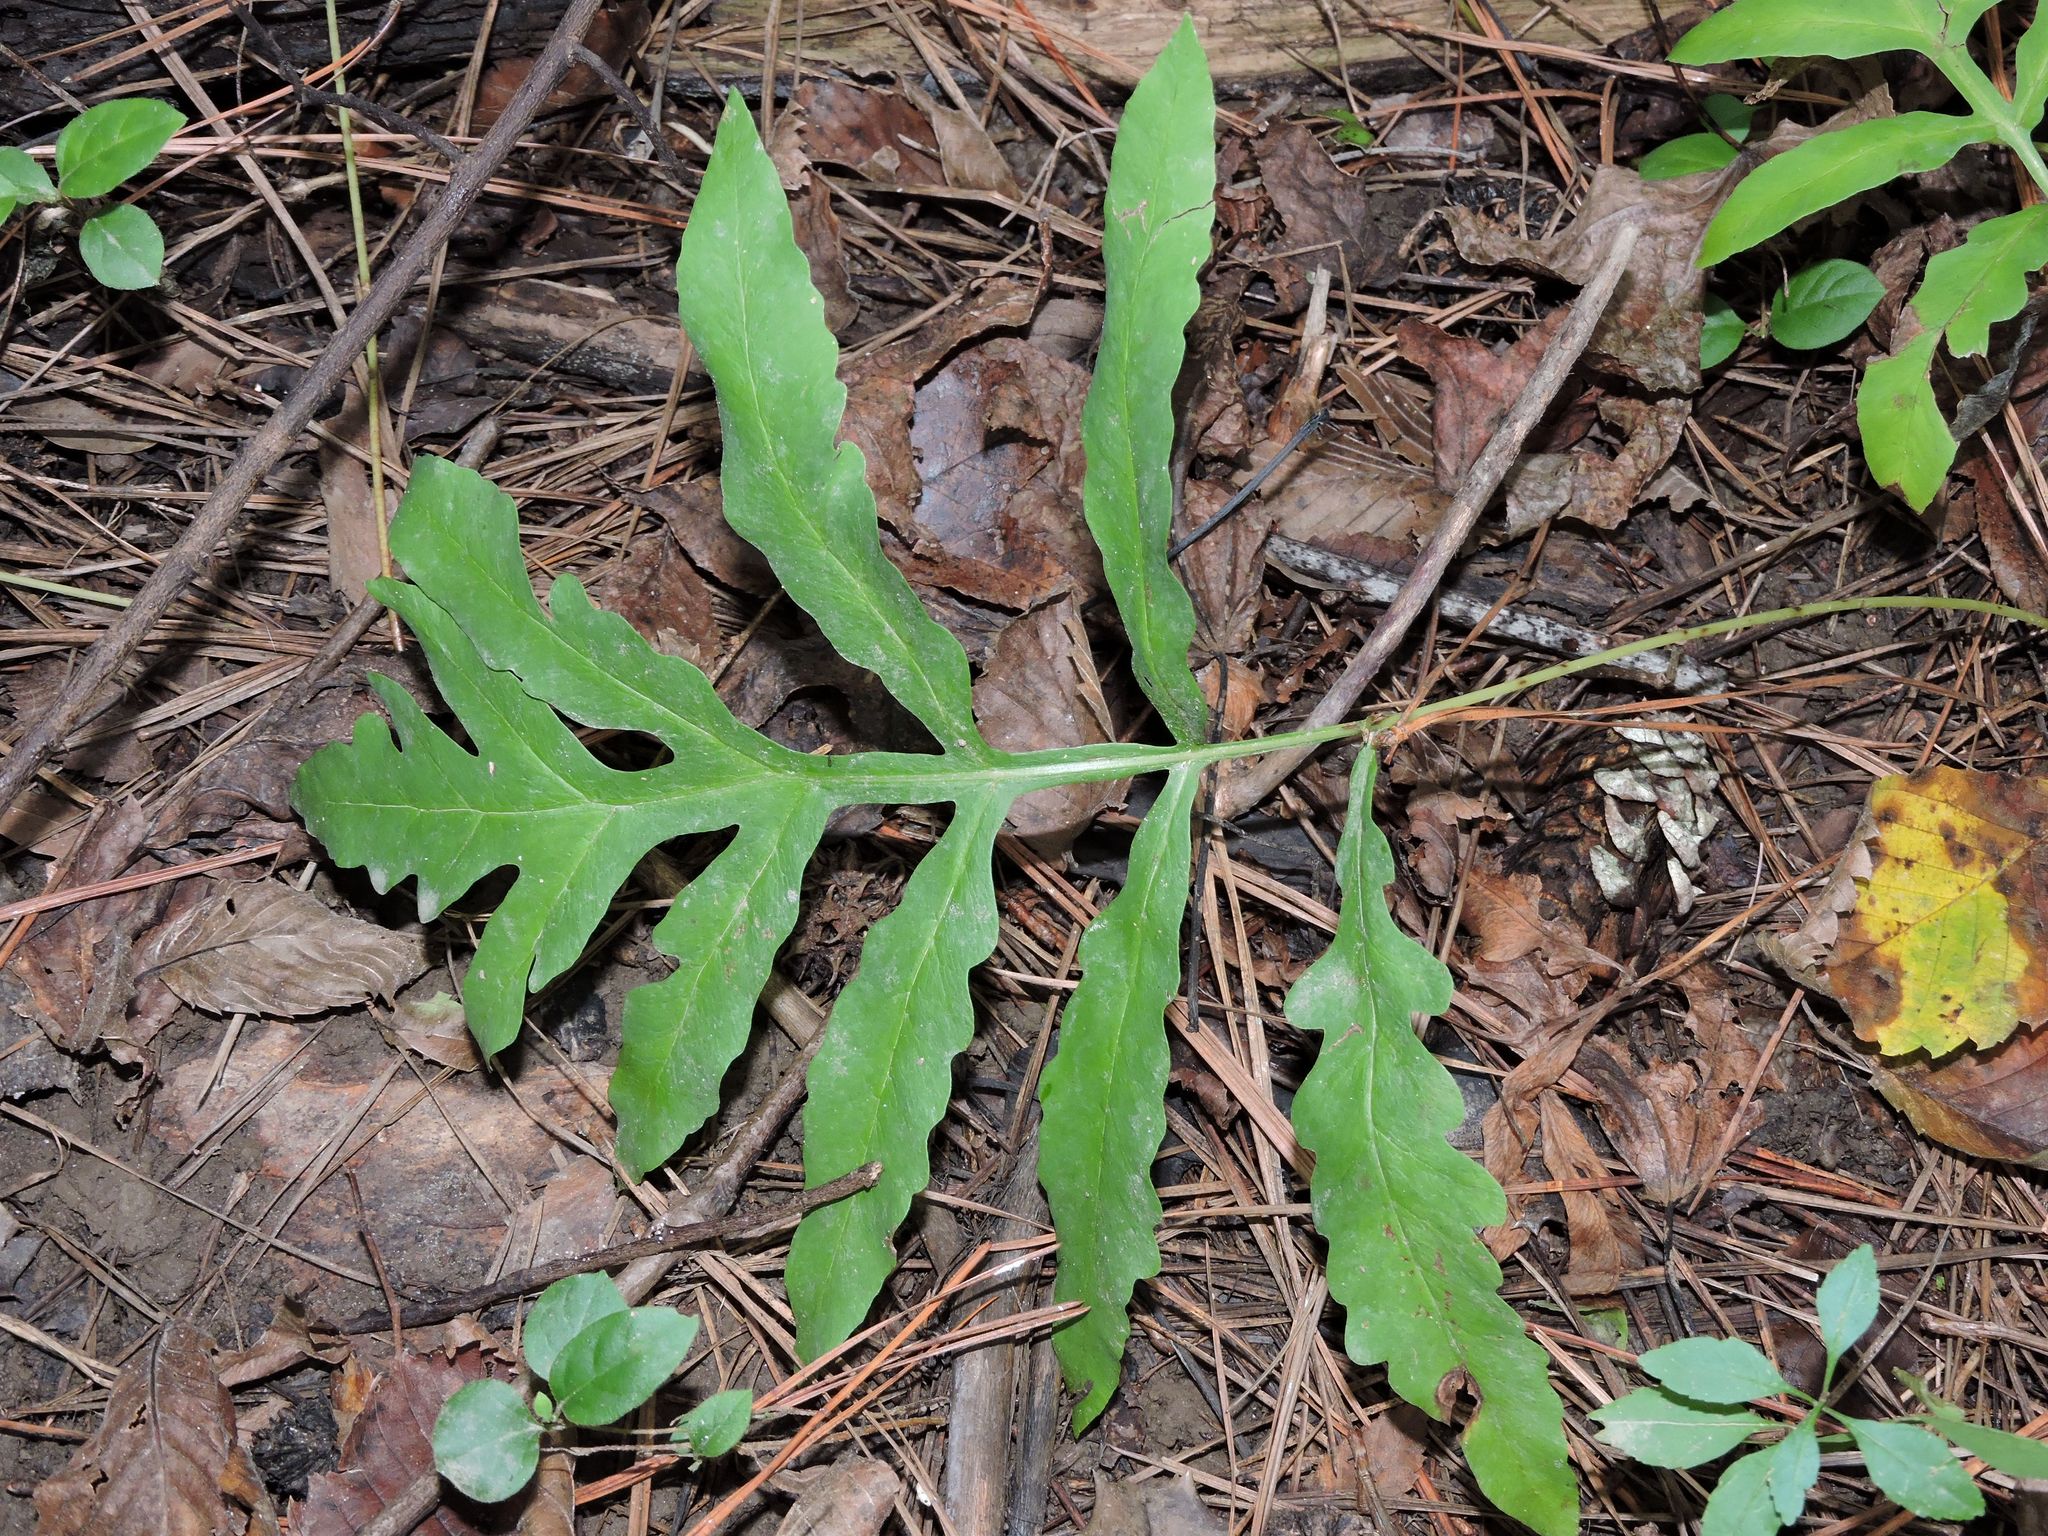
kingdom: Plantae
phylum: Tracheophyta
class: Polypodiopsida
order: Polypodiales
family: Onocleaceae
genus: Onoclea
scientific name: Onoclea sensibilis
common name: Sensitive fern
